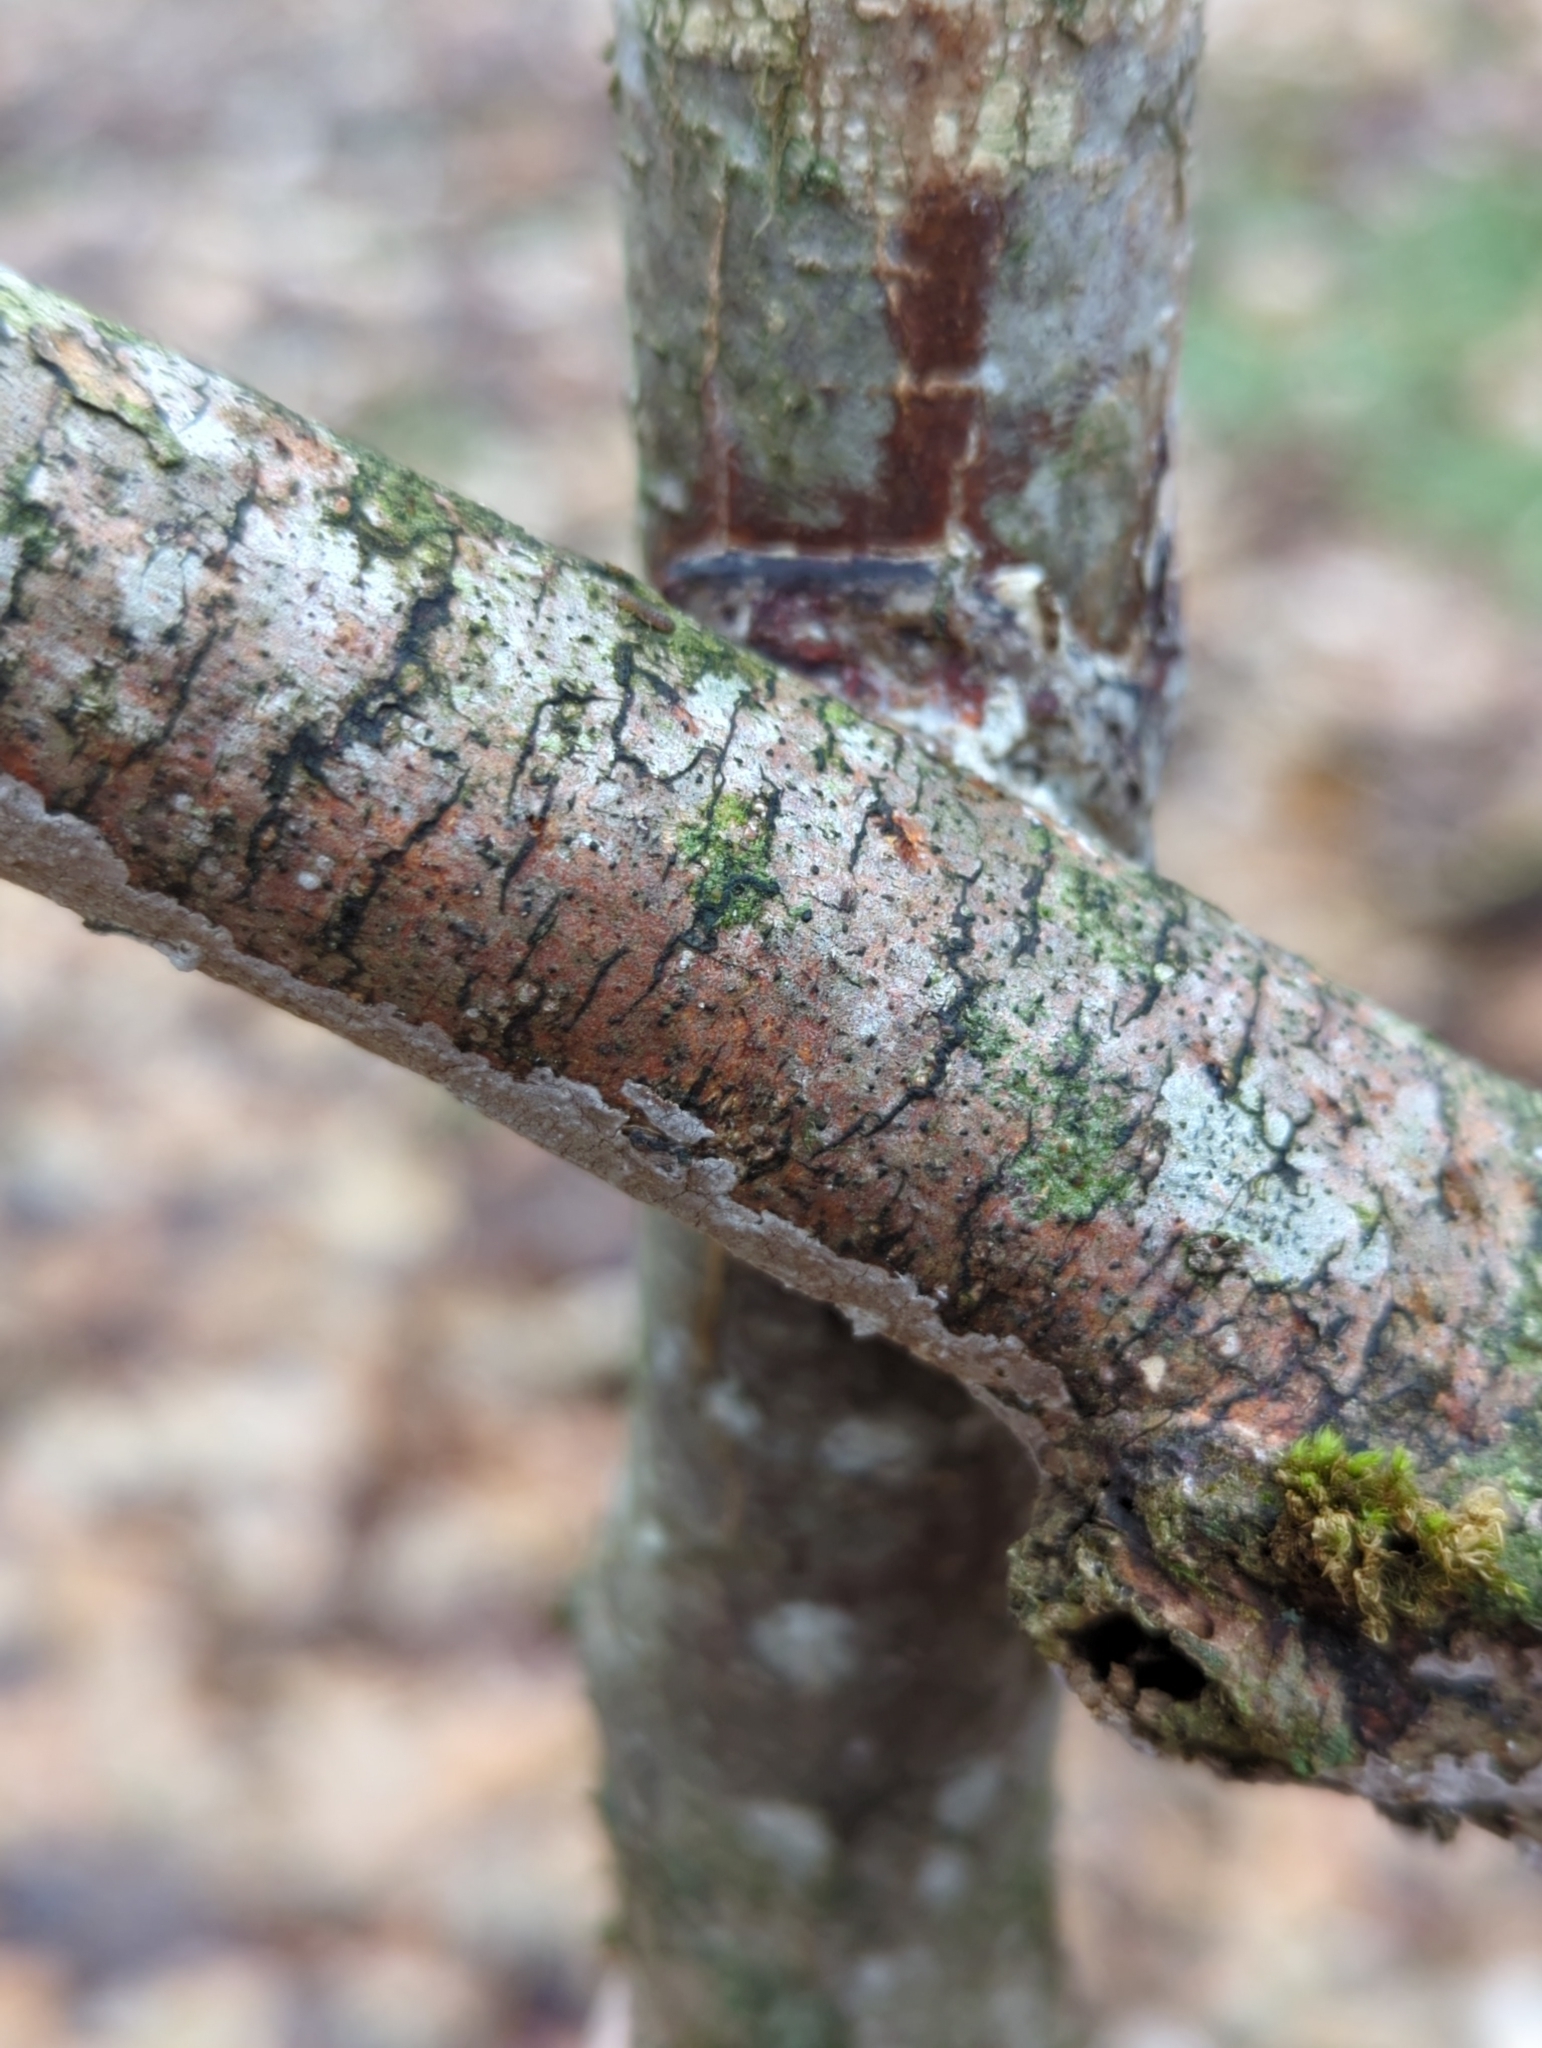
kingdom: Fungi
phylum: Basidiomycota
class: Agaricomycetes
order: Hymenochaetales
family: Hymenochaetaceae
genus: Hydnoporia
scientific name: Hydnoporia diffissa
